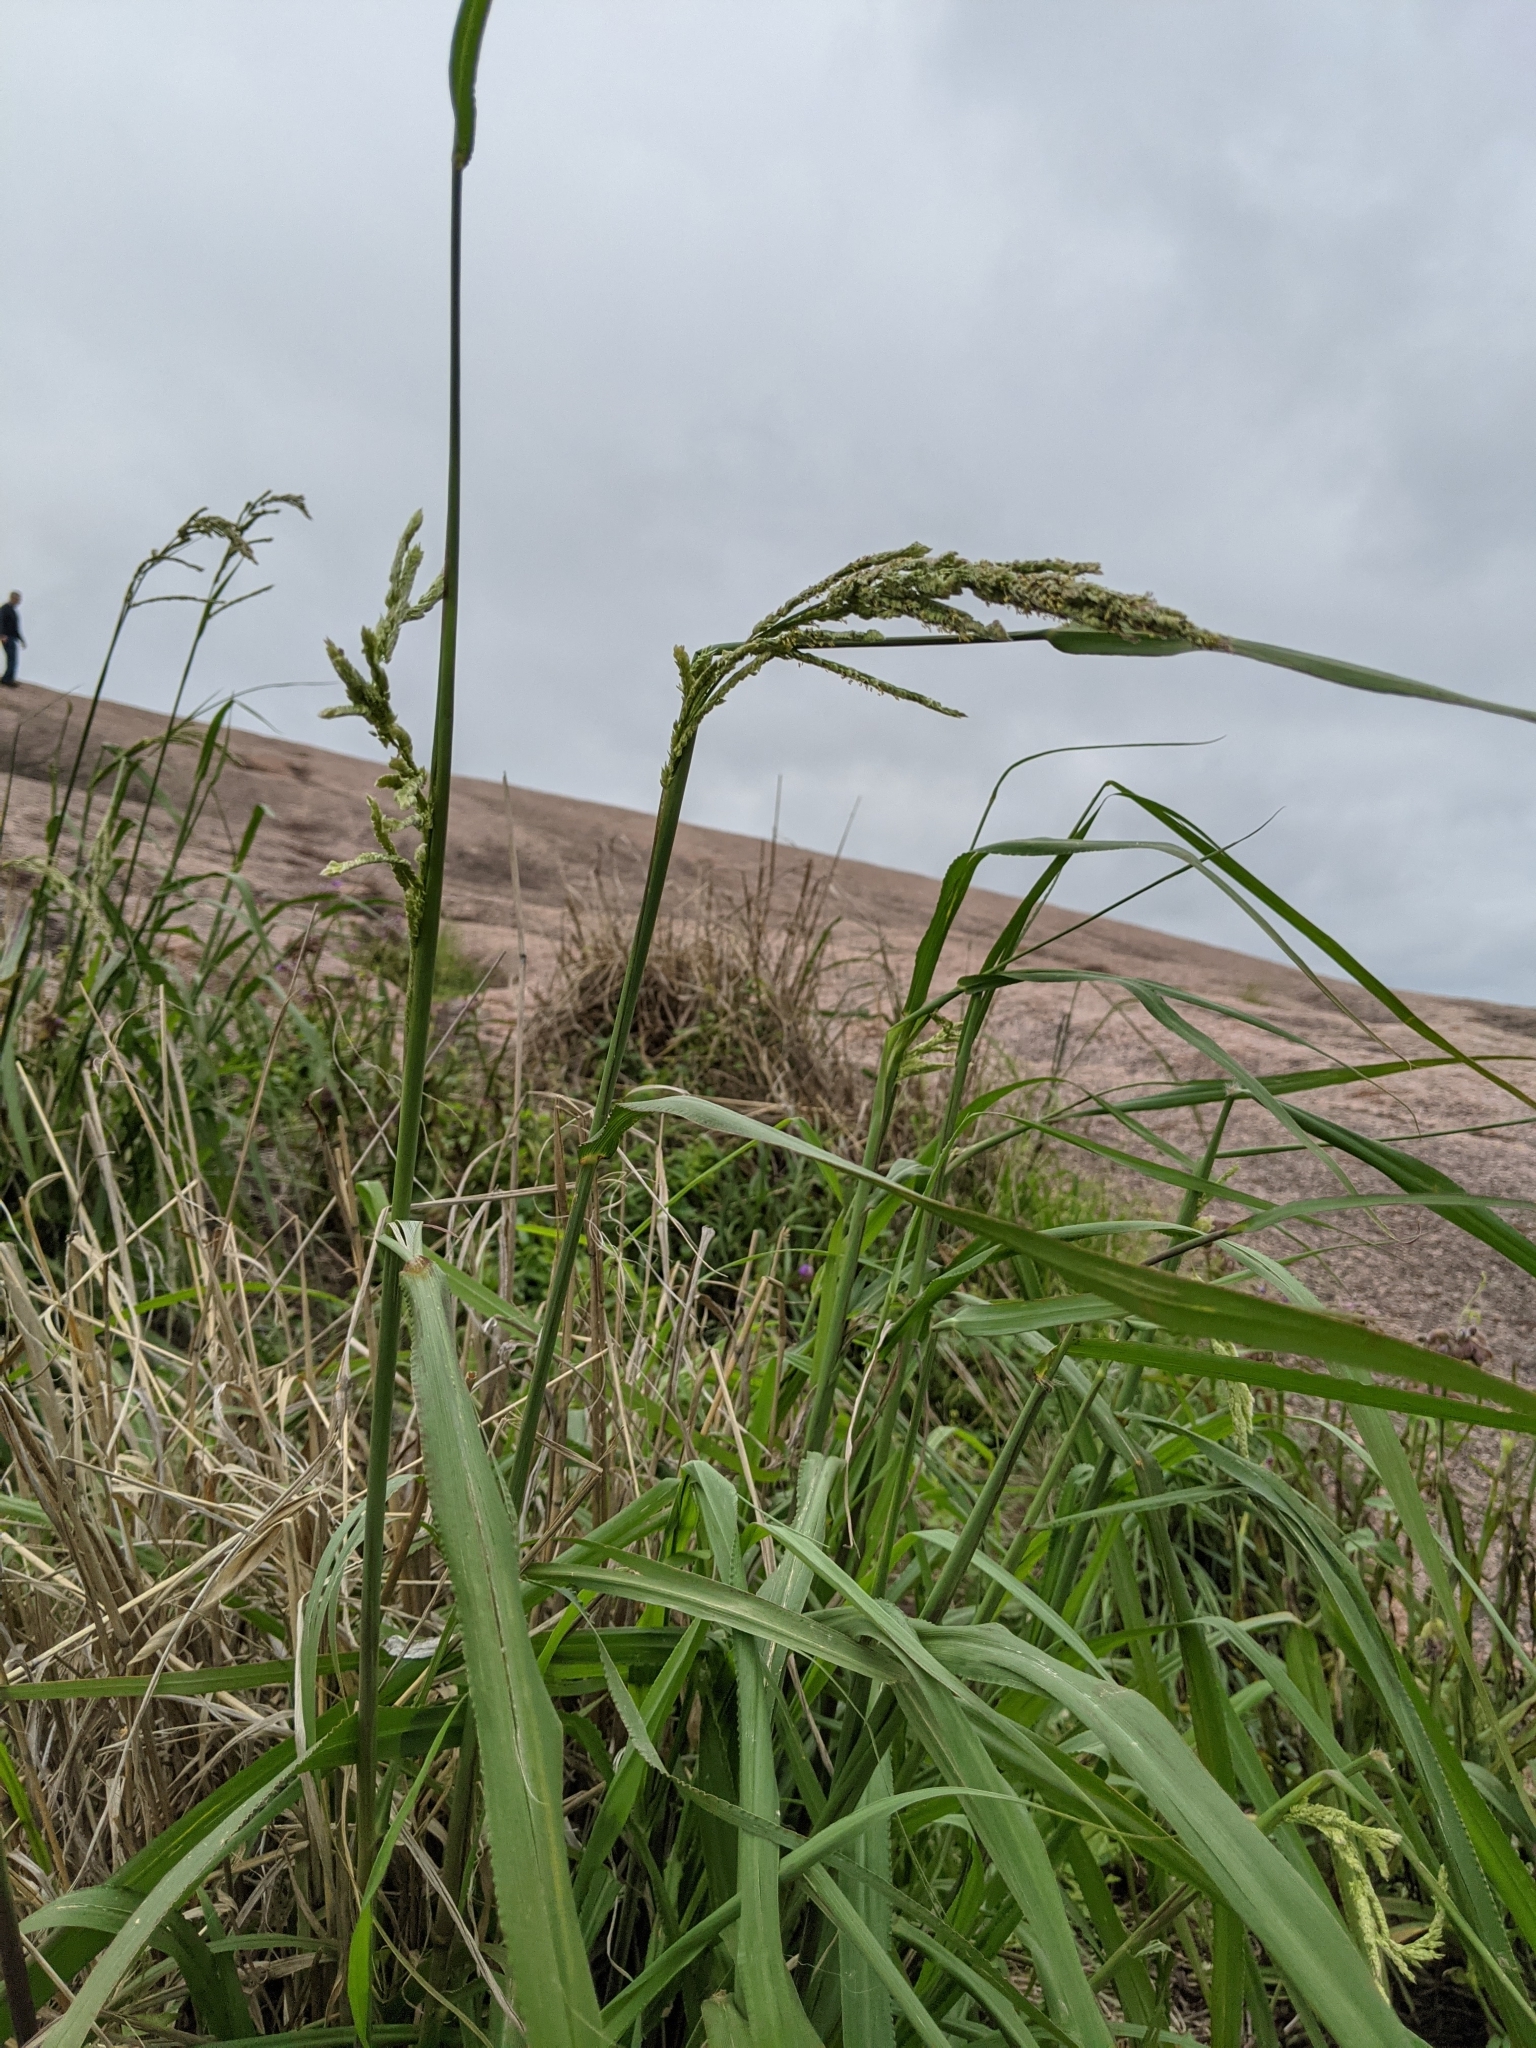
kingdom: Plantae
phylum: Tracheophyta
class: Liliopsida
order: Poales
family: Poaceae
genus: Paspalum
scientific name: Paspalum urvillei
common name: Vasey's grass
